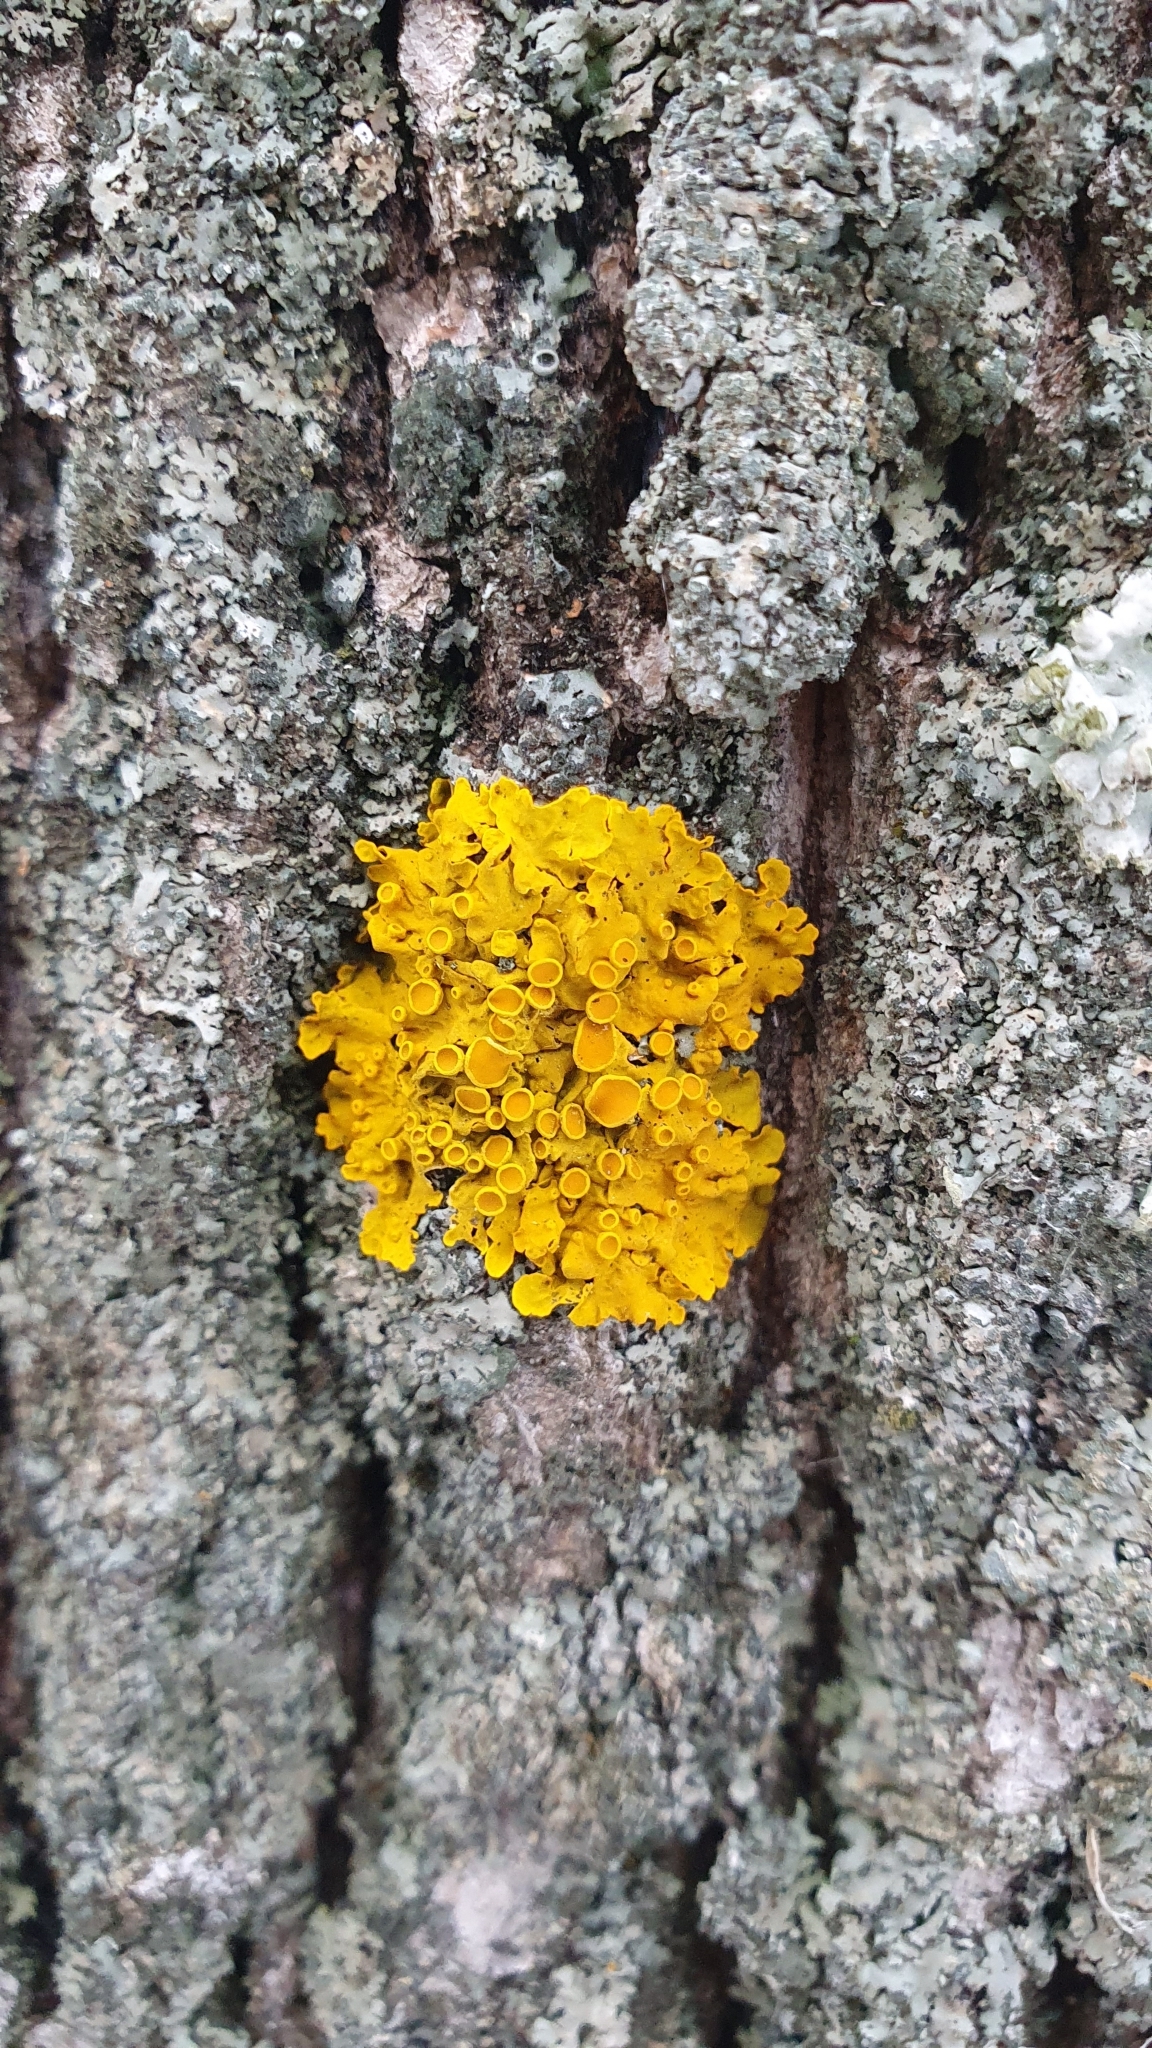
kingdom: Fungi
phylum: Ascomycota
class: Lecanoromycetes
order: Teloschistales
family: Teloschistaceae
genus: Xanthoria
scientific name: Xanthoria parietina
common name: Common orange lichen
